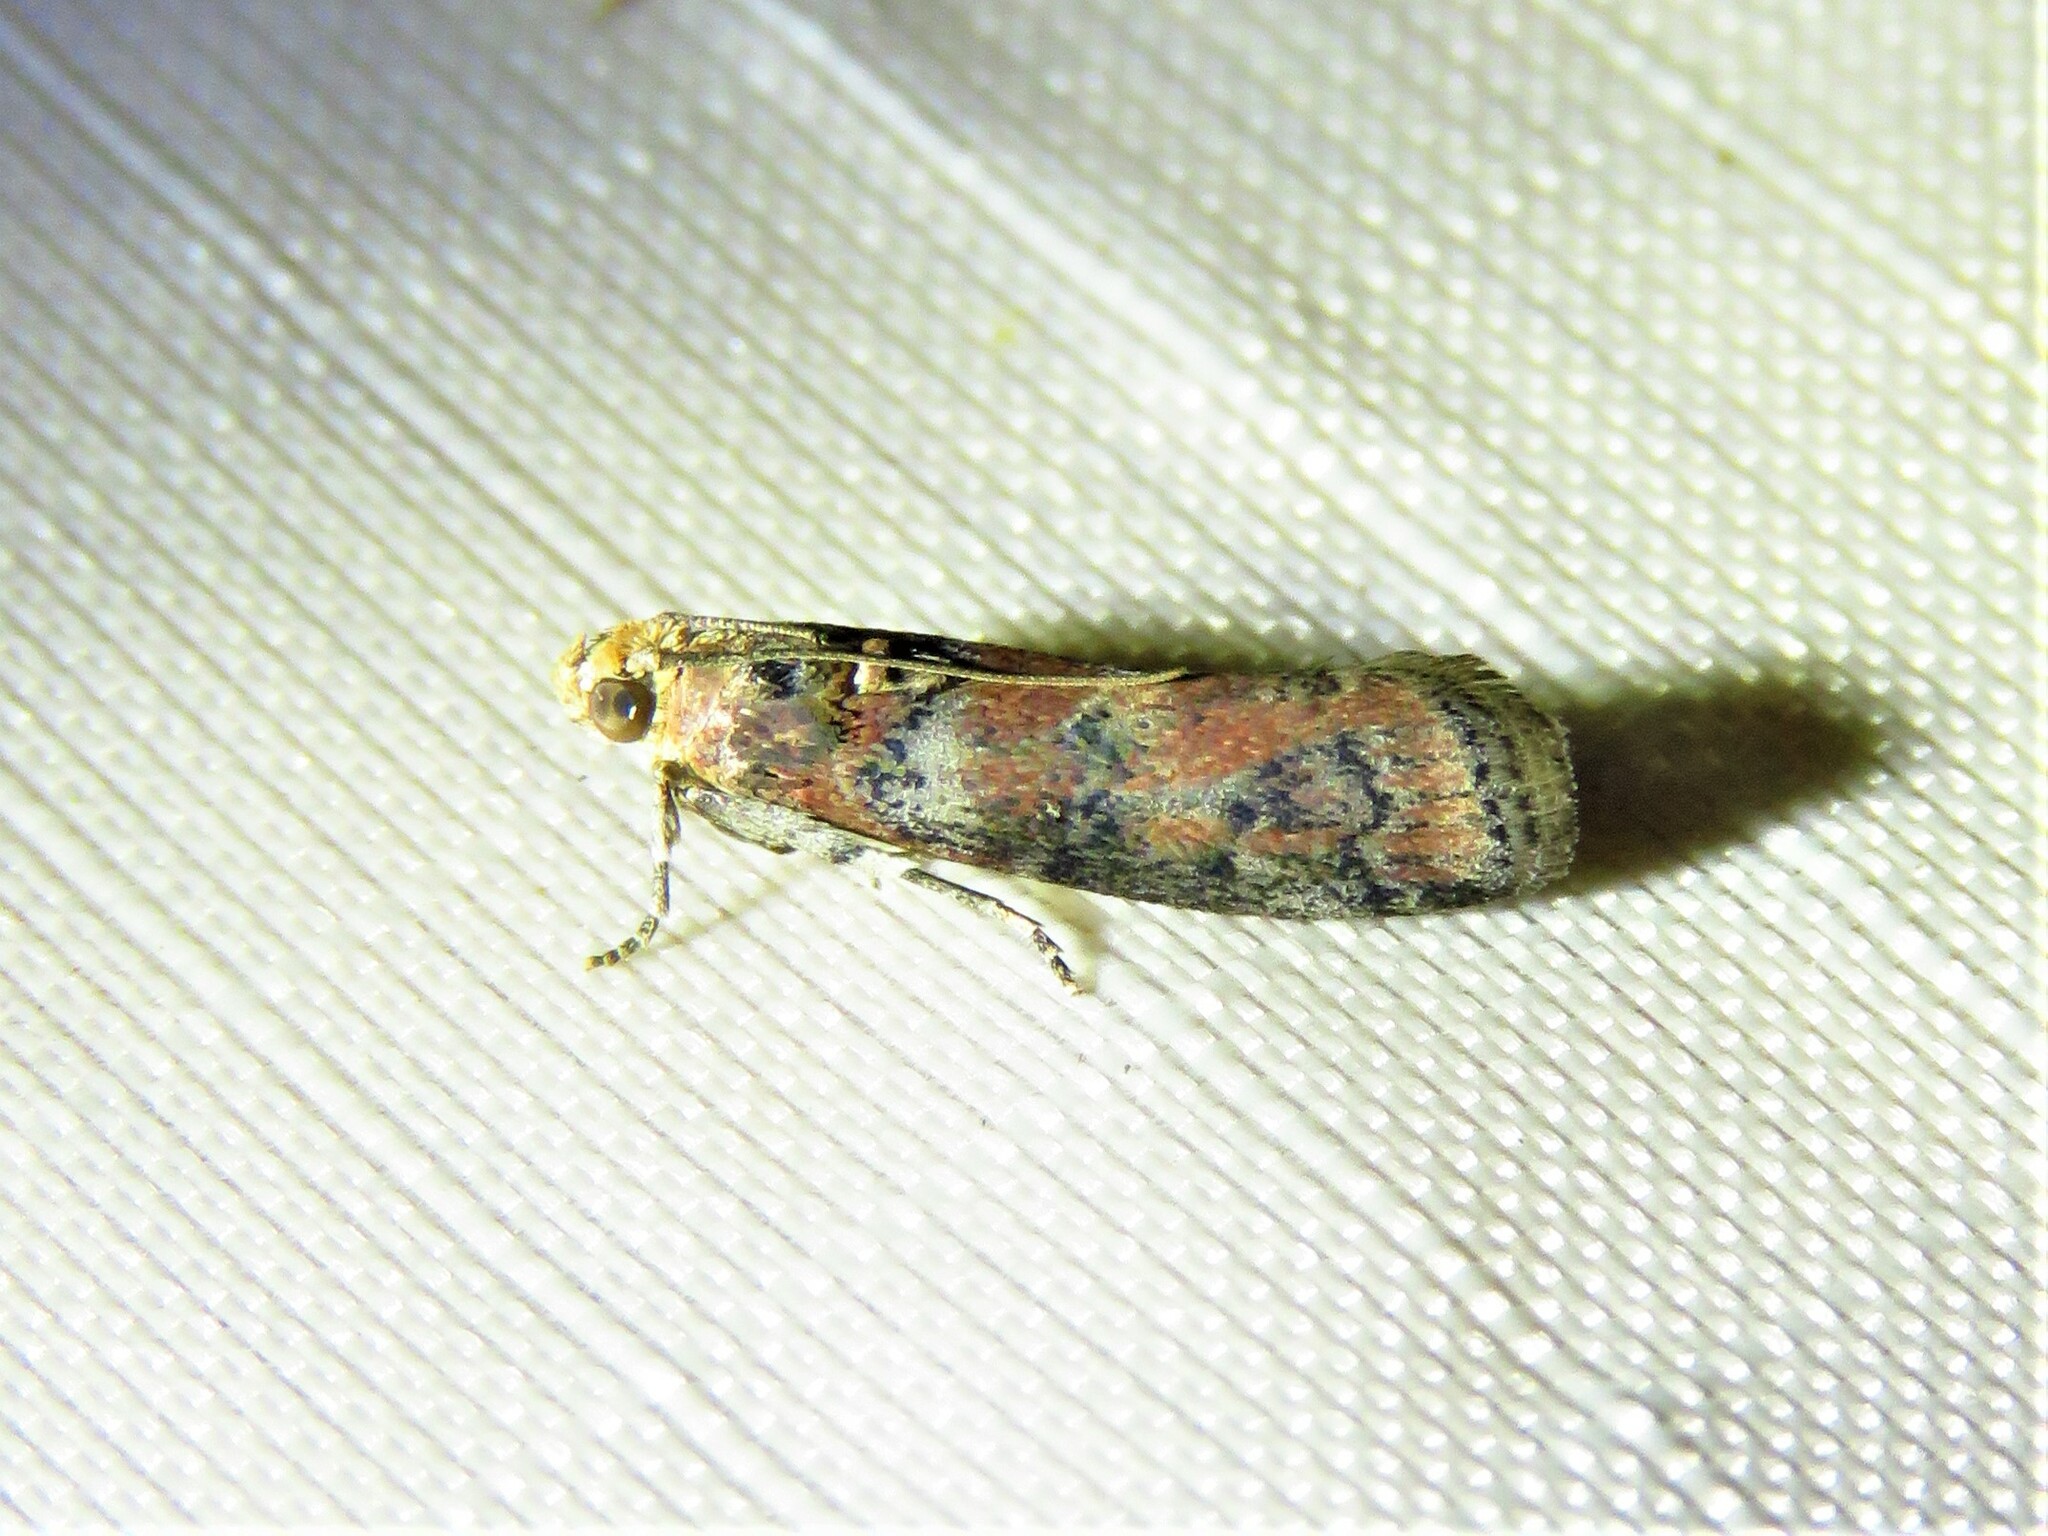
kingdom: Animalia
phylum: Arthropoda
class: Insecta
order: Lepidoptera
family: Pyralidae
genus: Sciota
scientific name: Sciota
